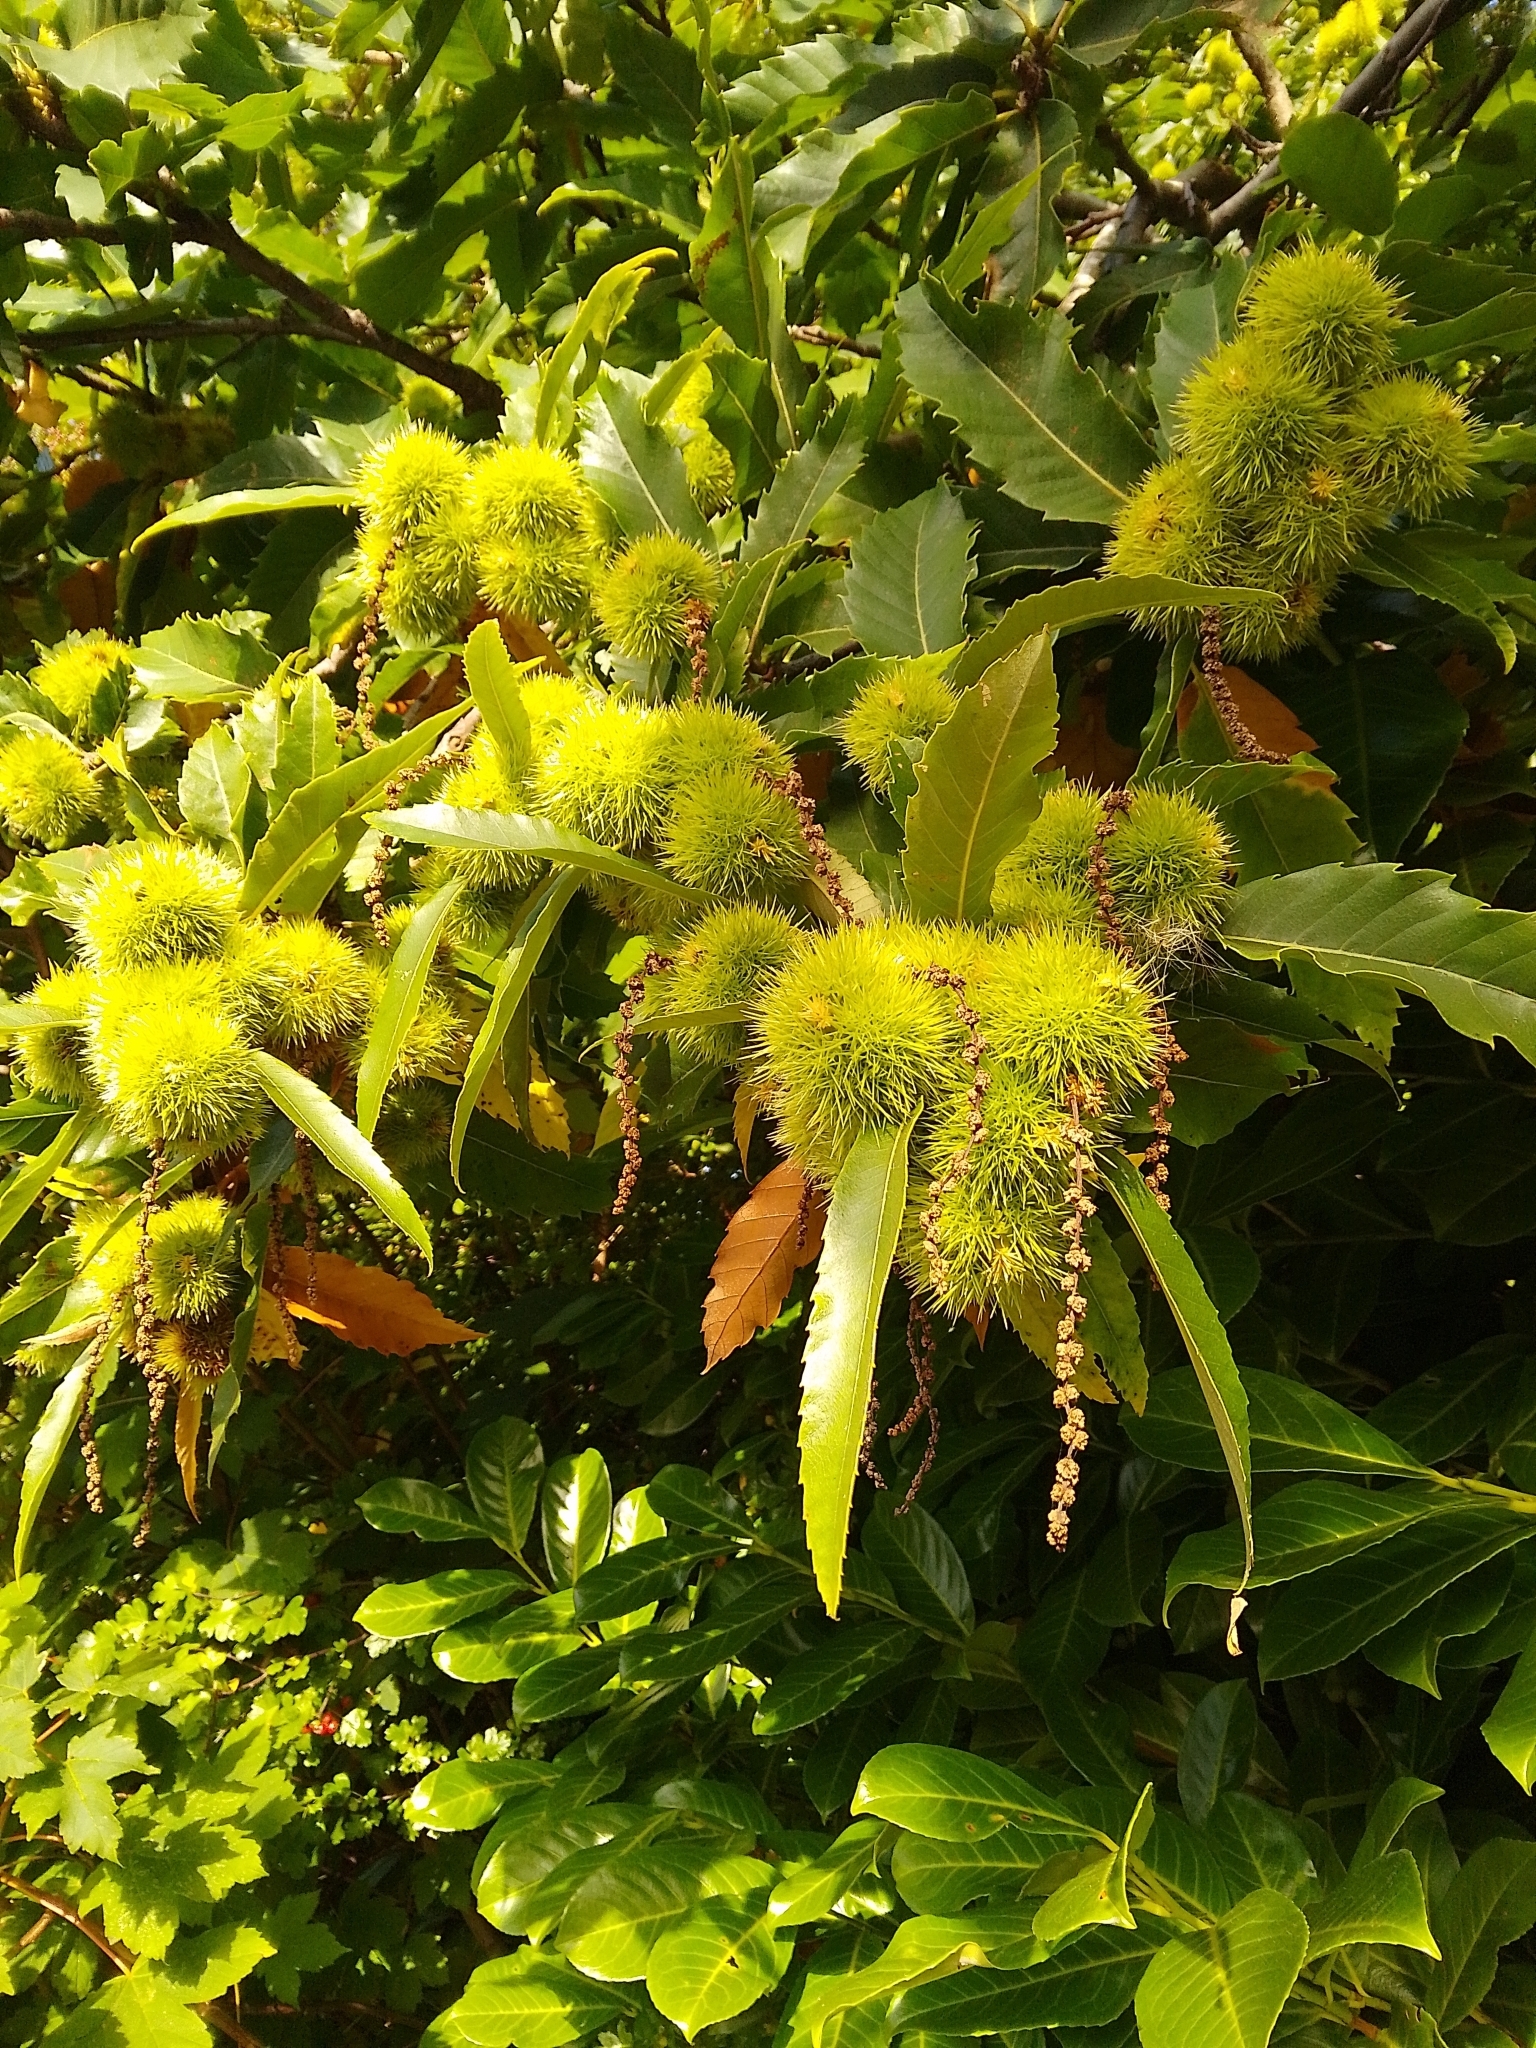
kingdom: Plantae
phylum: Tracheophyta
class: Magnoliopsida
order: Fagales
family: Fagaceae
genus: Castanea
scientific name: Castanea sativa
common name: Sweet chestnut
